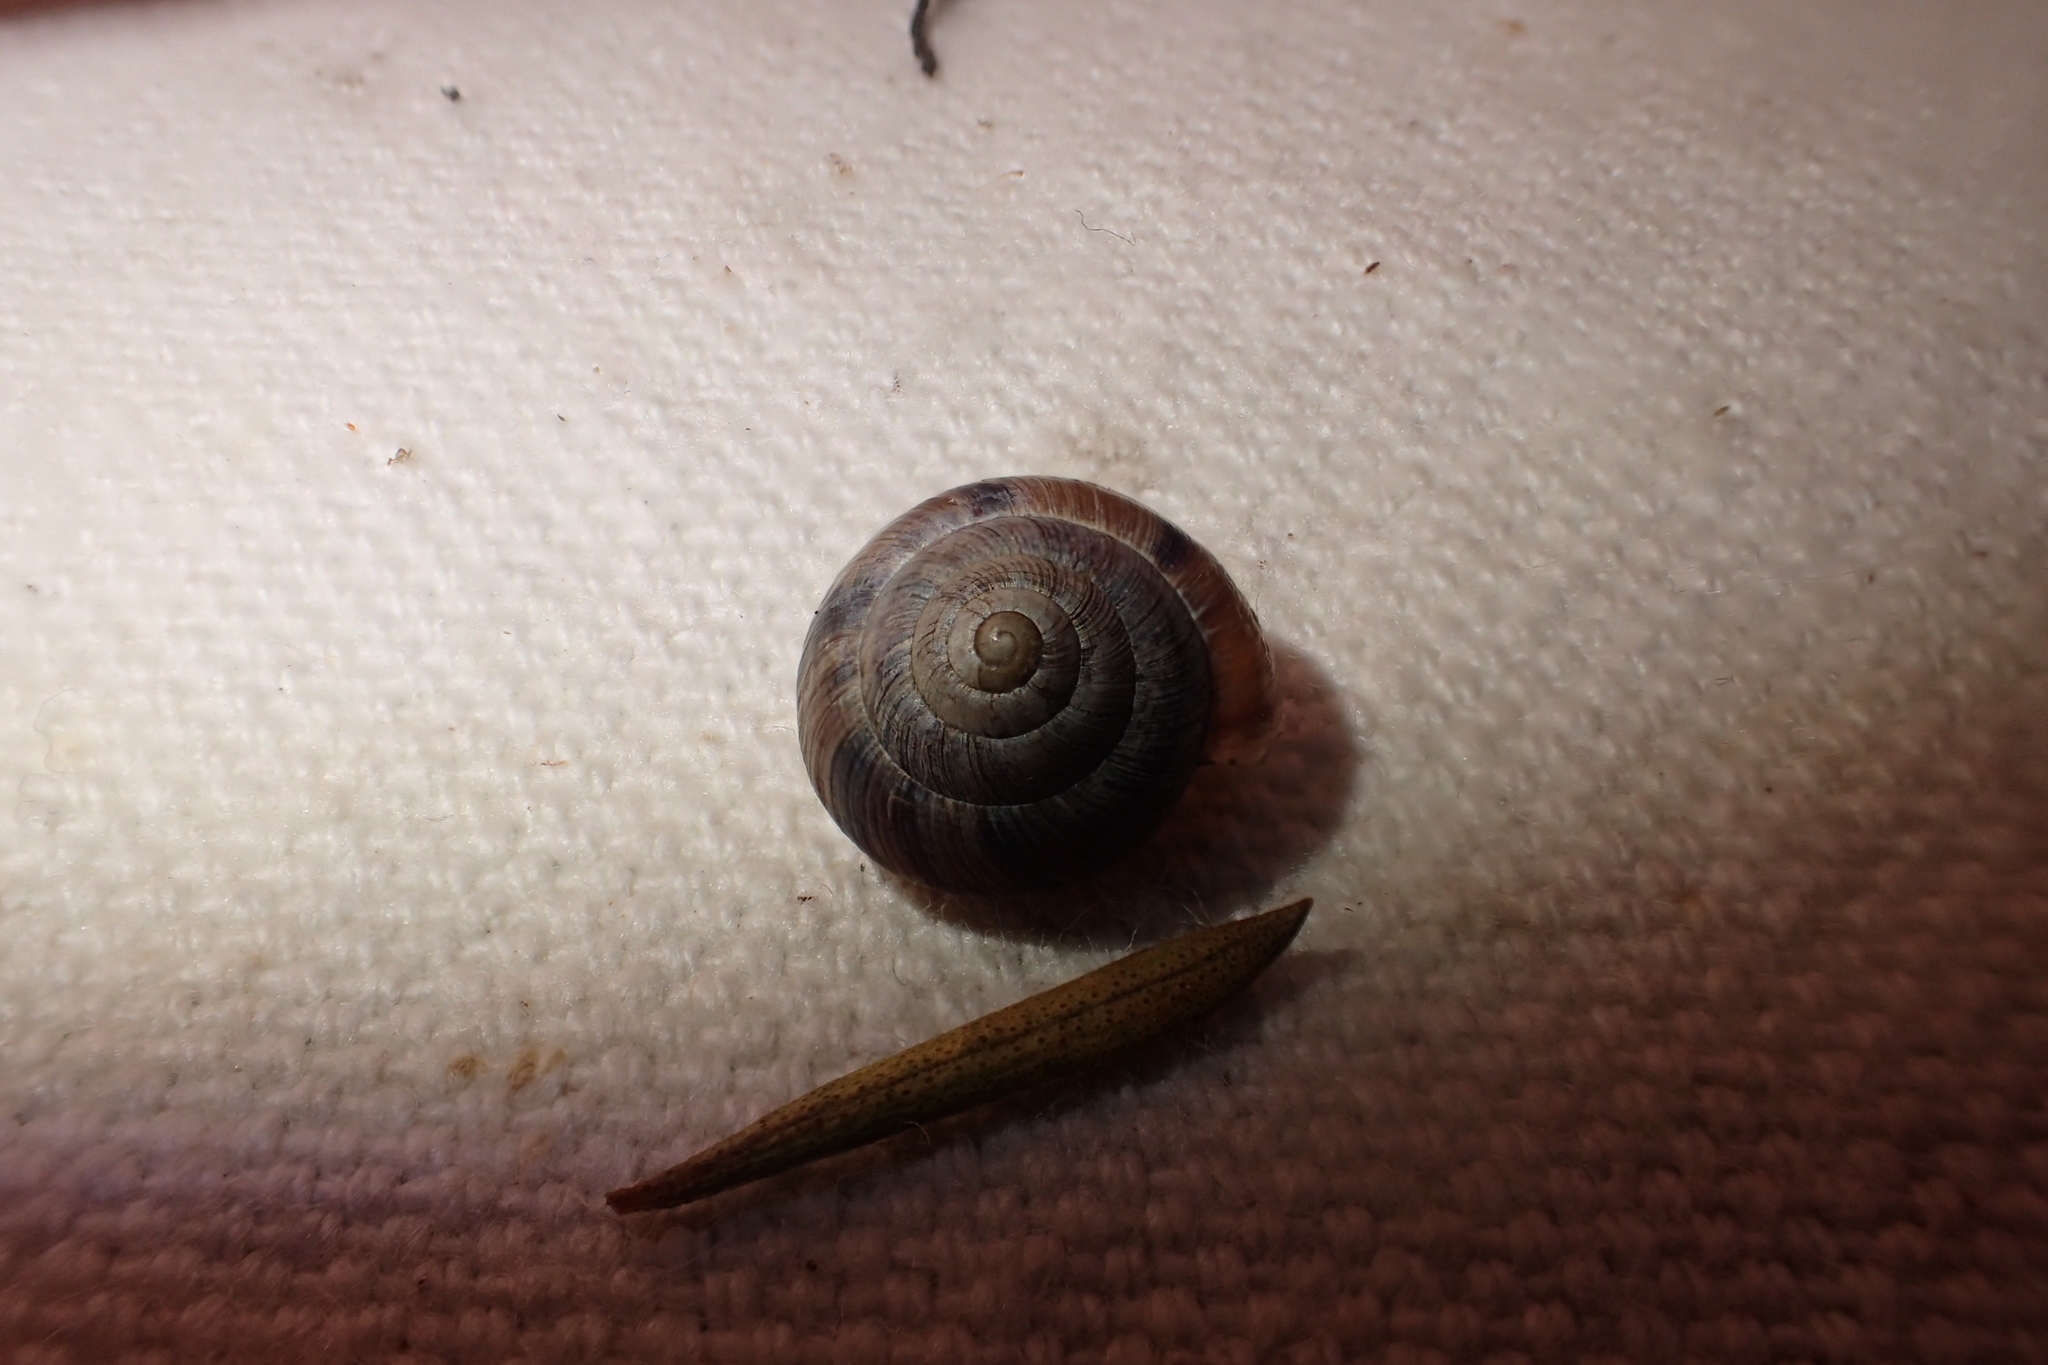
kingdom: Animalia
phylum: Mollusca
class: Gastropoda
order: Stylommatophora
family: Charopidae
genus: Serpho
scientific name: Serpho
